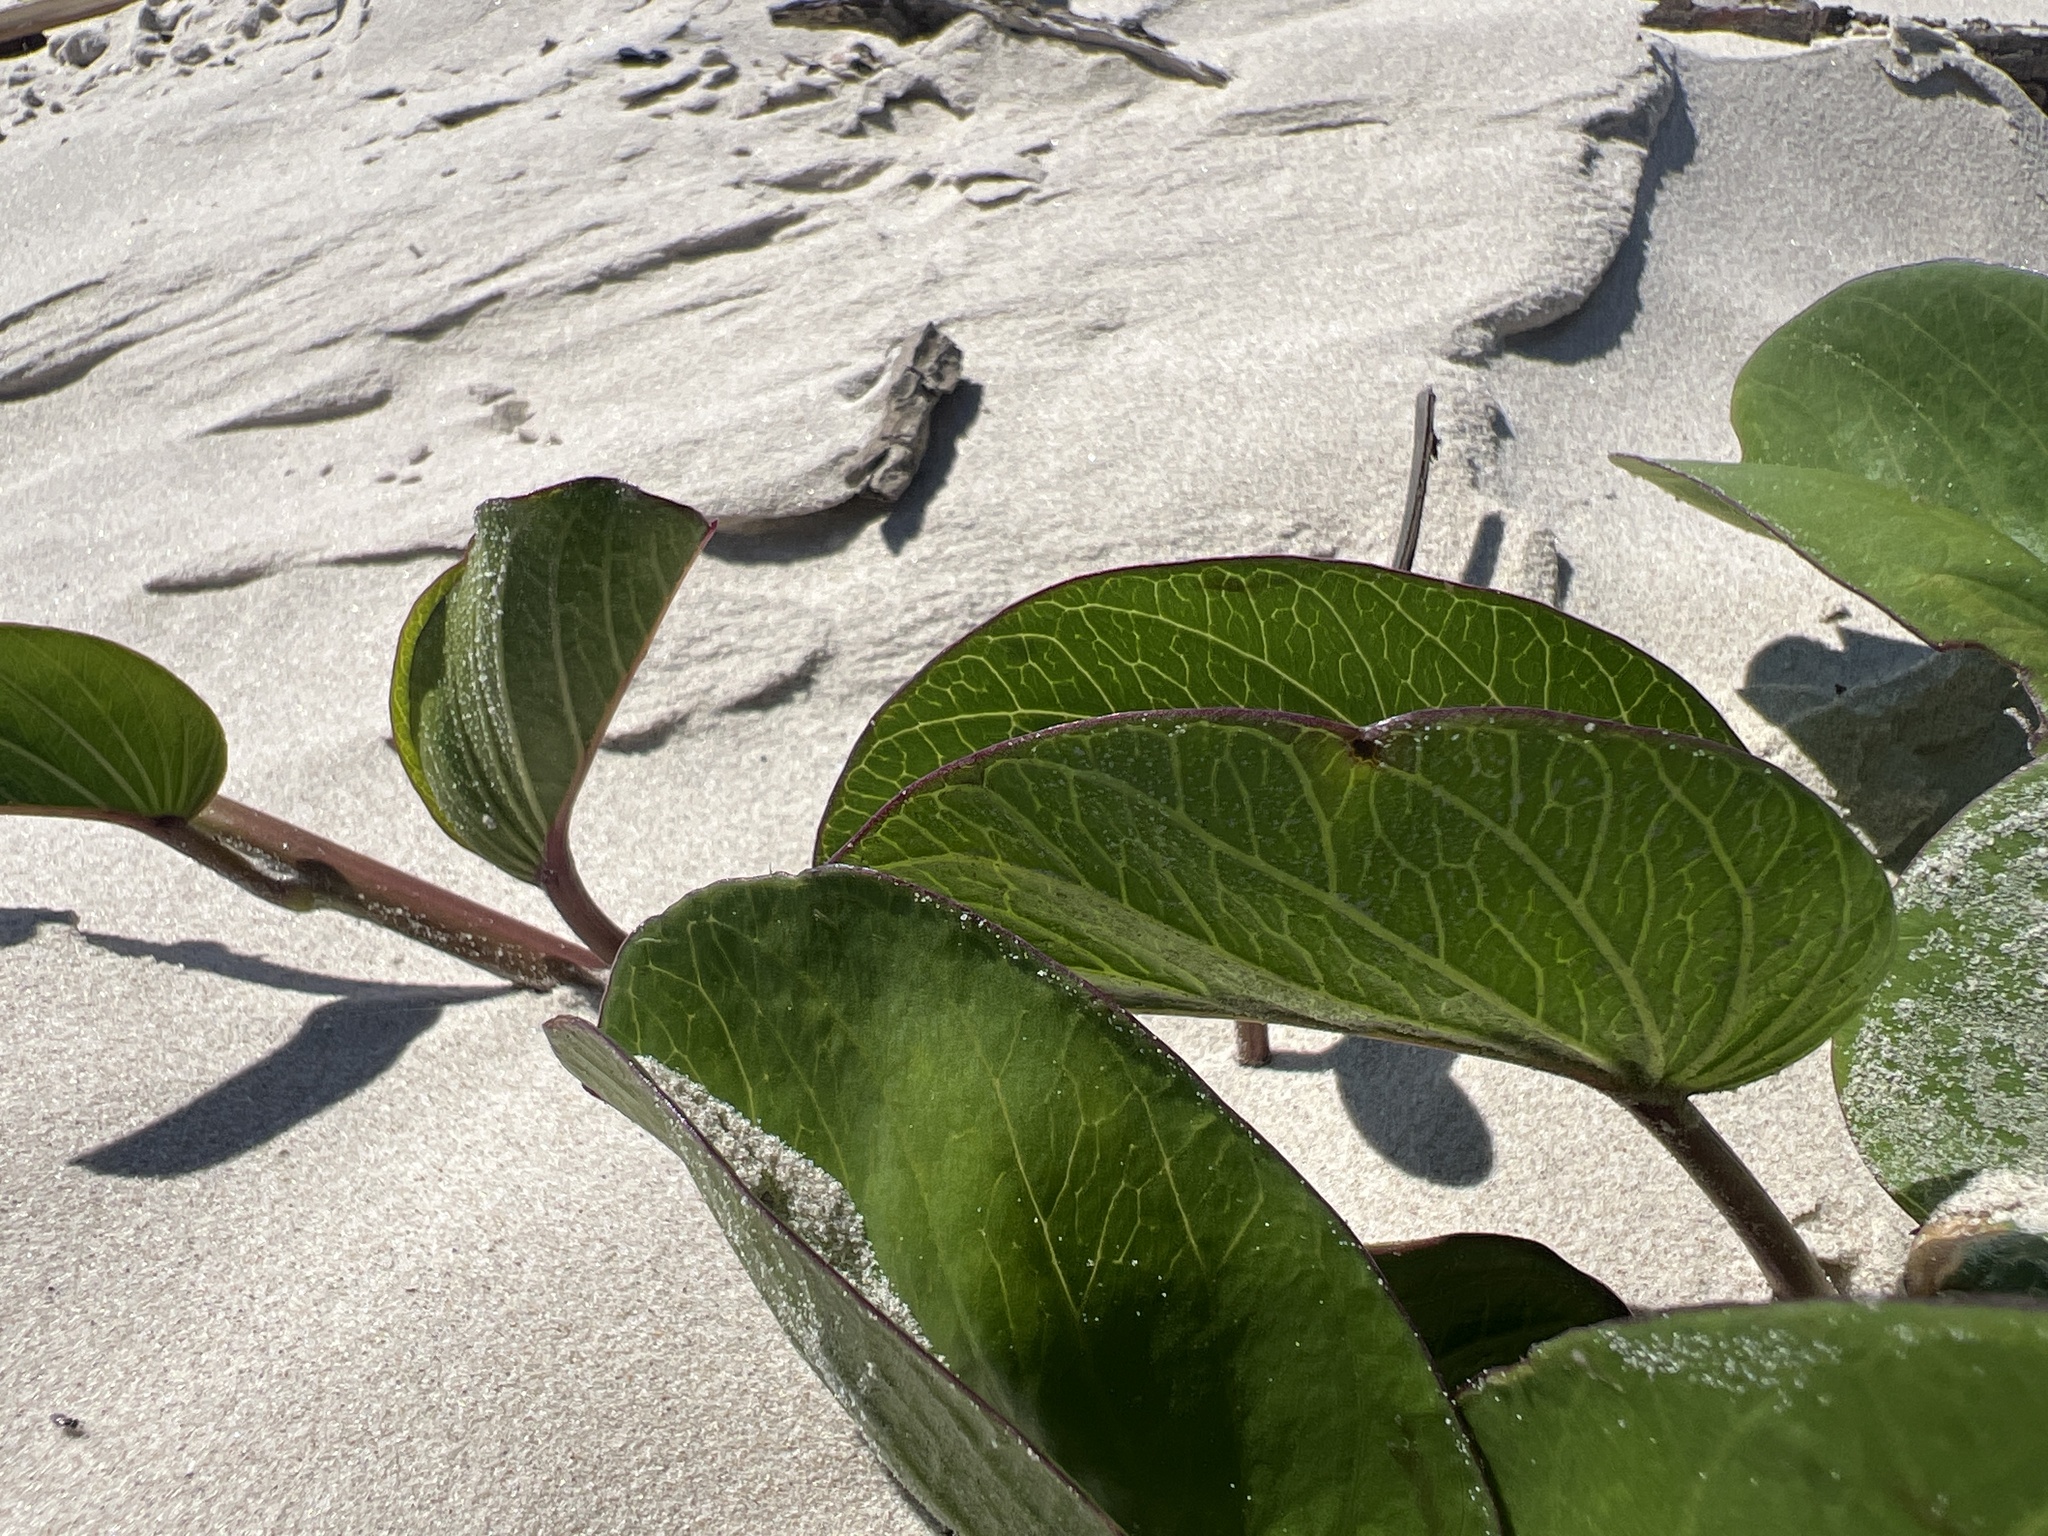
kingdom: Plantae
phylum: Tracheophyta
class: Magnoliopsida
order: Solanales
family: Convolvulaceae
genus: Ipomoea
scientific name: Ipomoea pes-caprae
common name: Beach morning glory
